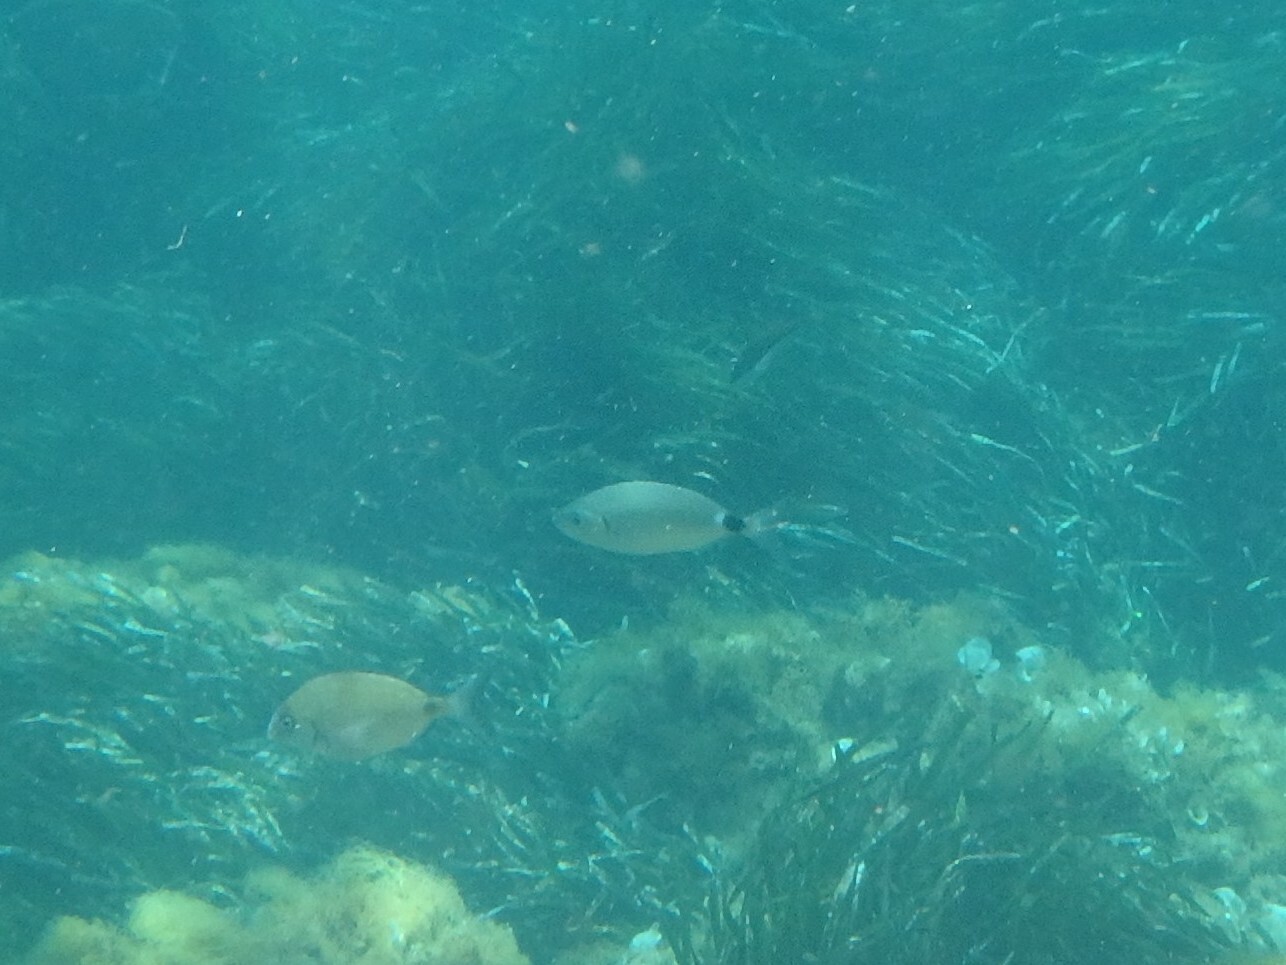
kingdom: Animalia
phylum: Chordata
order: Perciformes
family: Sparidae
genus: Oblada
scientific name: Oblada melanura
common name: Saddled seabream
